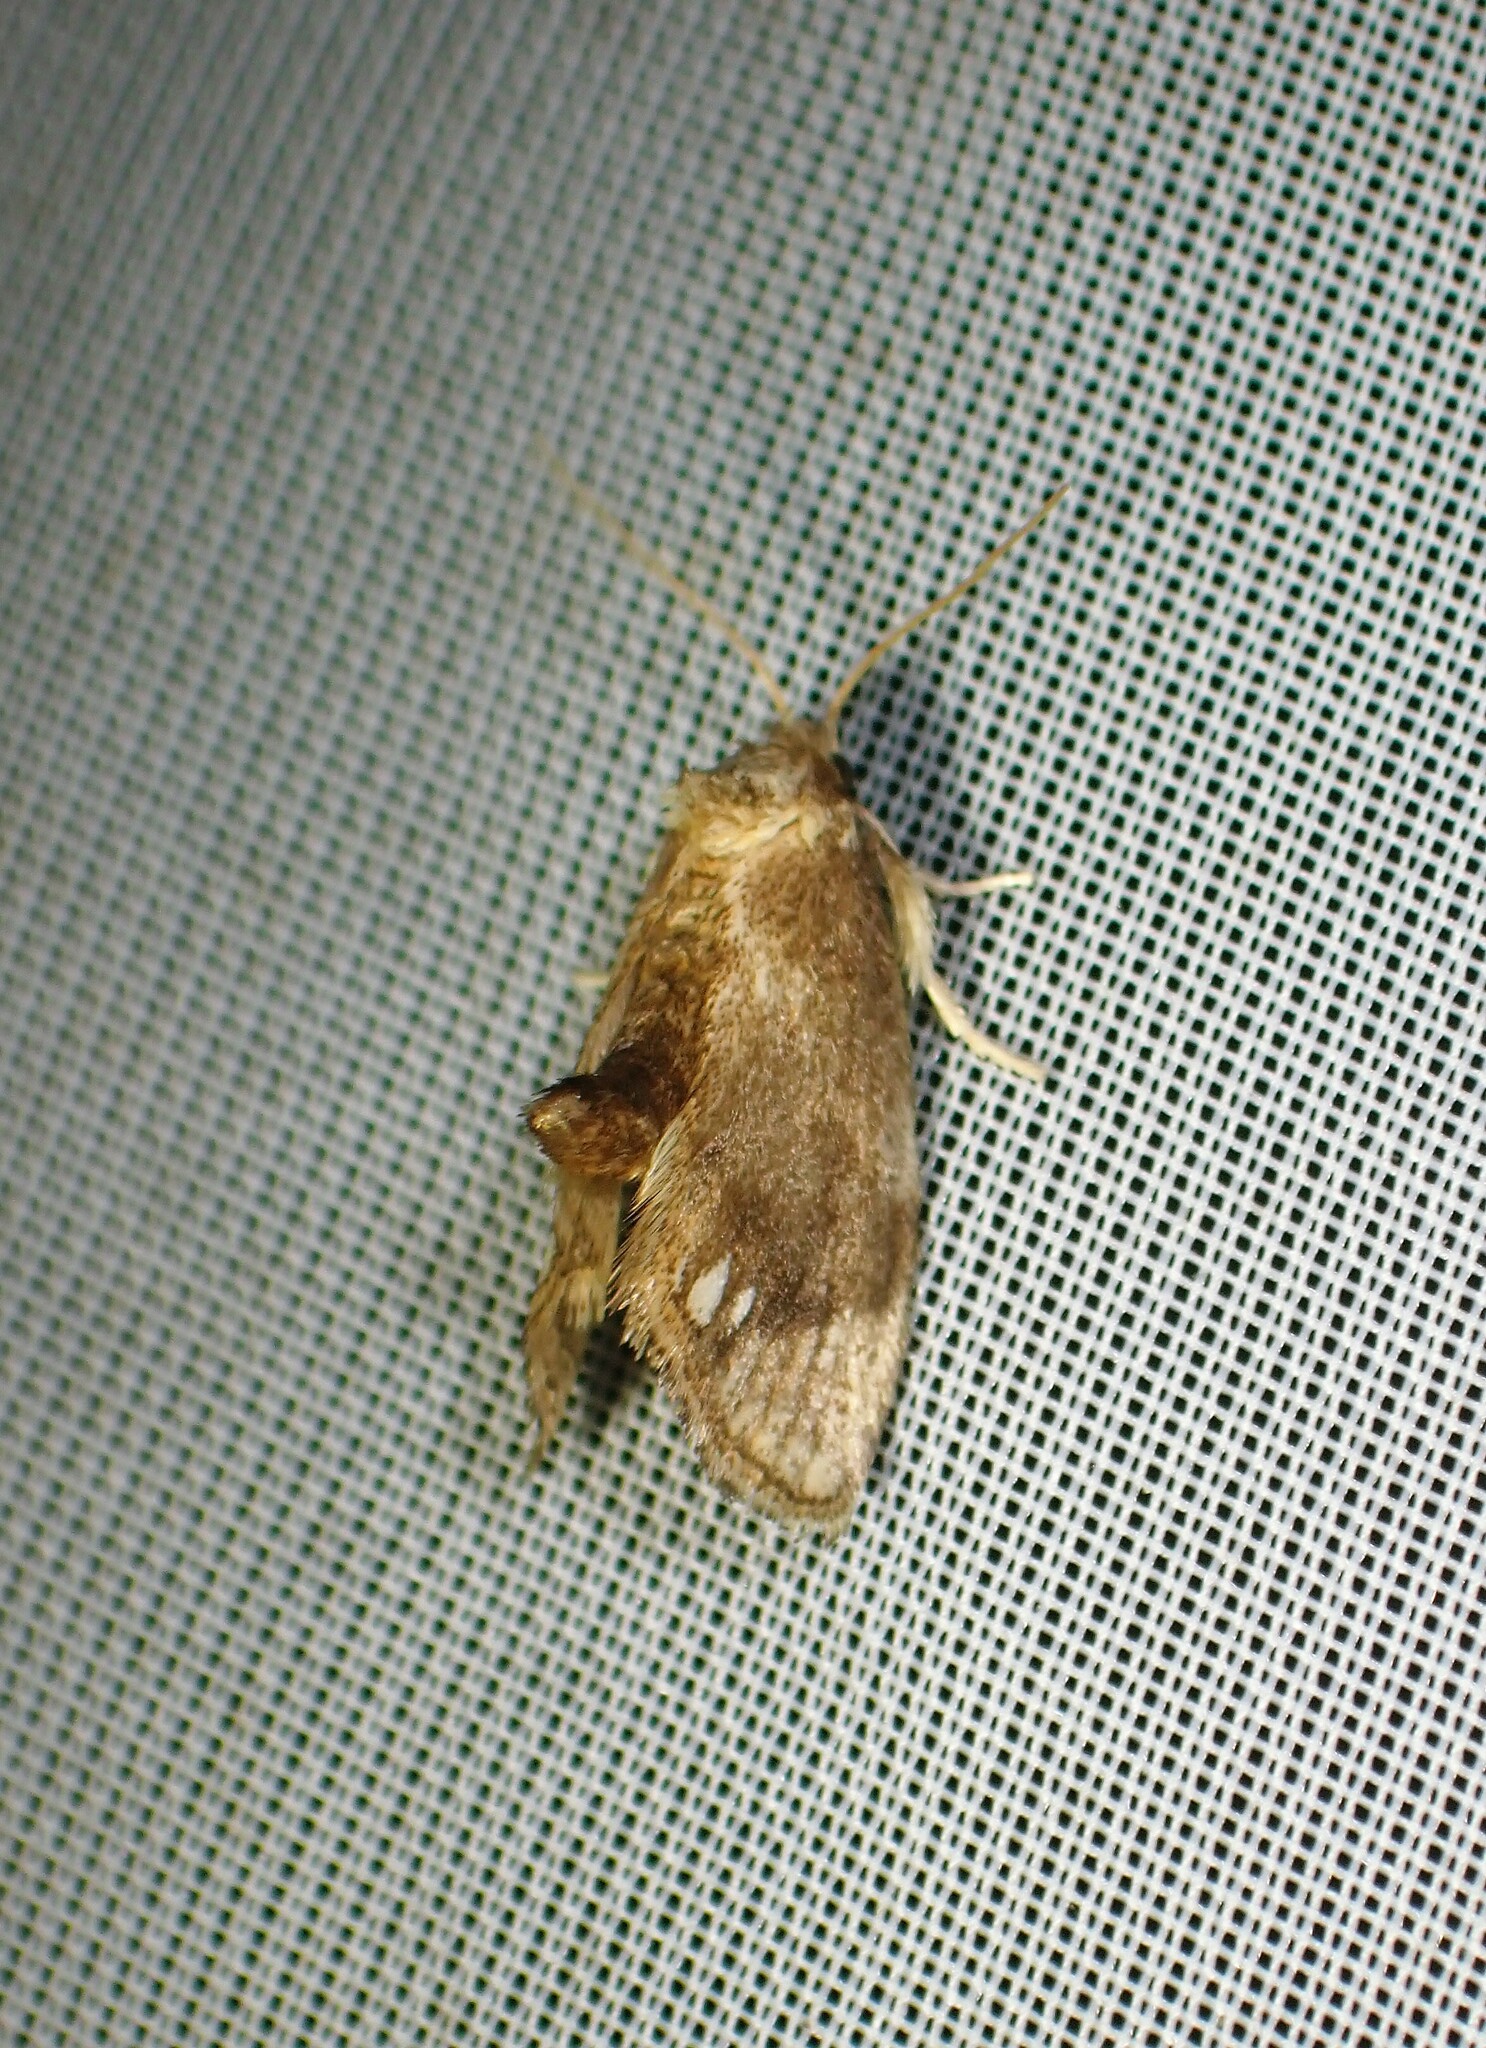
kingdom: Animalia
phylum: Arthropoda
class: Insecta
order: Lepidoptera
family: Limacodidae
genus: Packardia
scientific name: Packardia geminata
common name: Jeweled tailed slug moth
